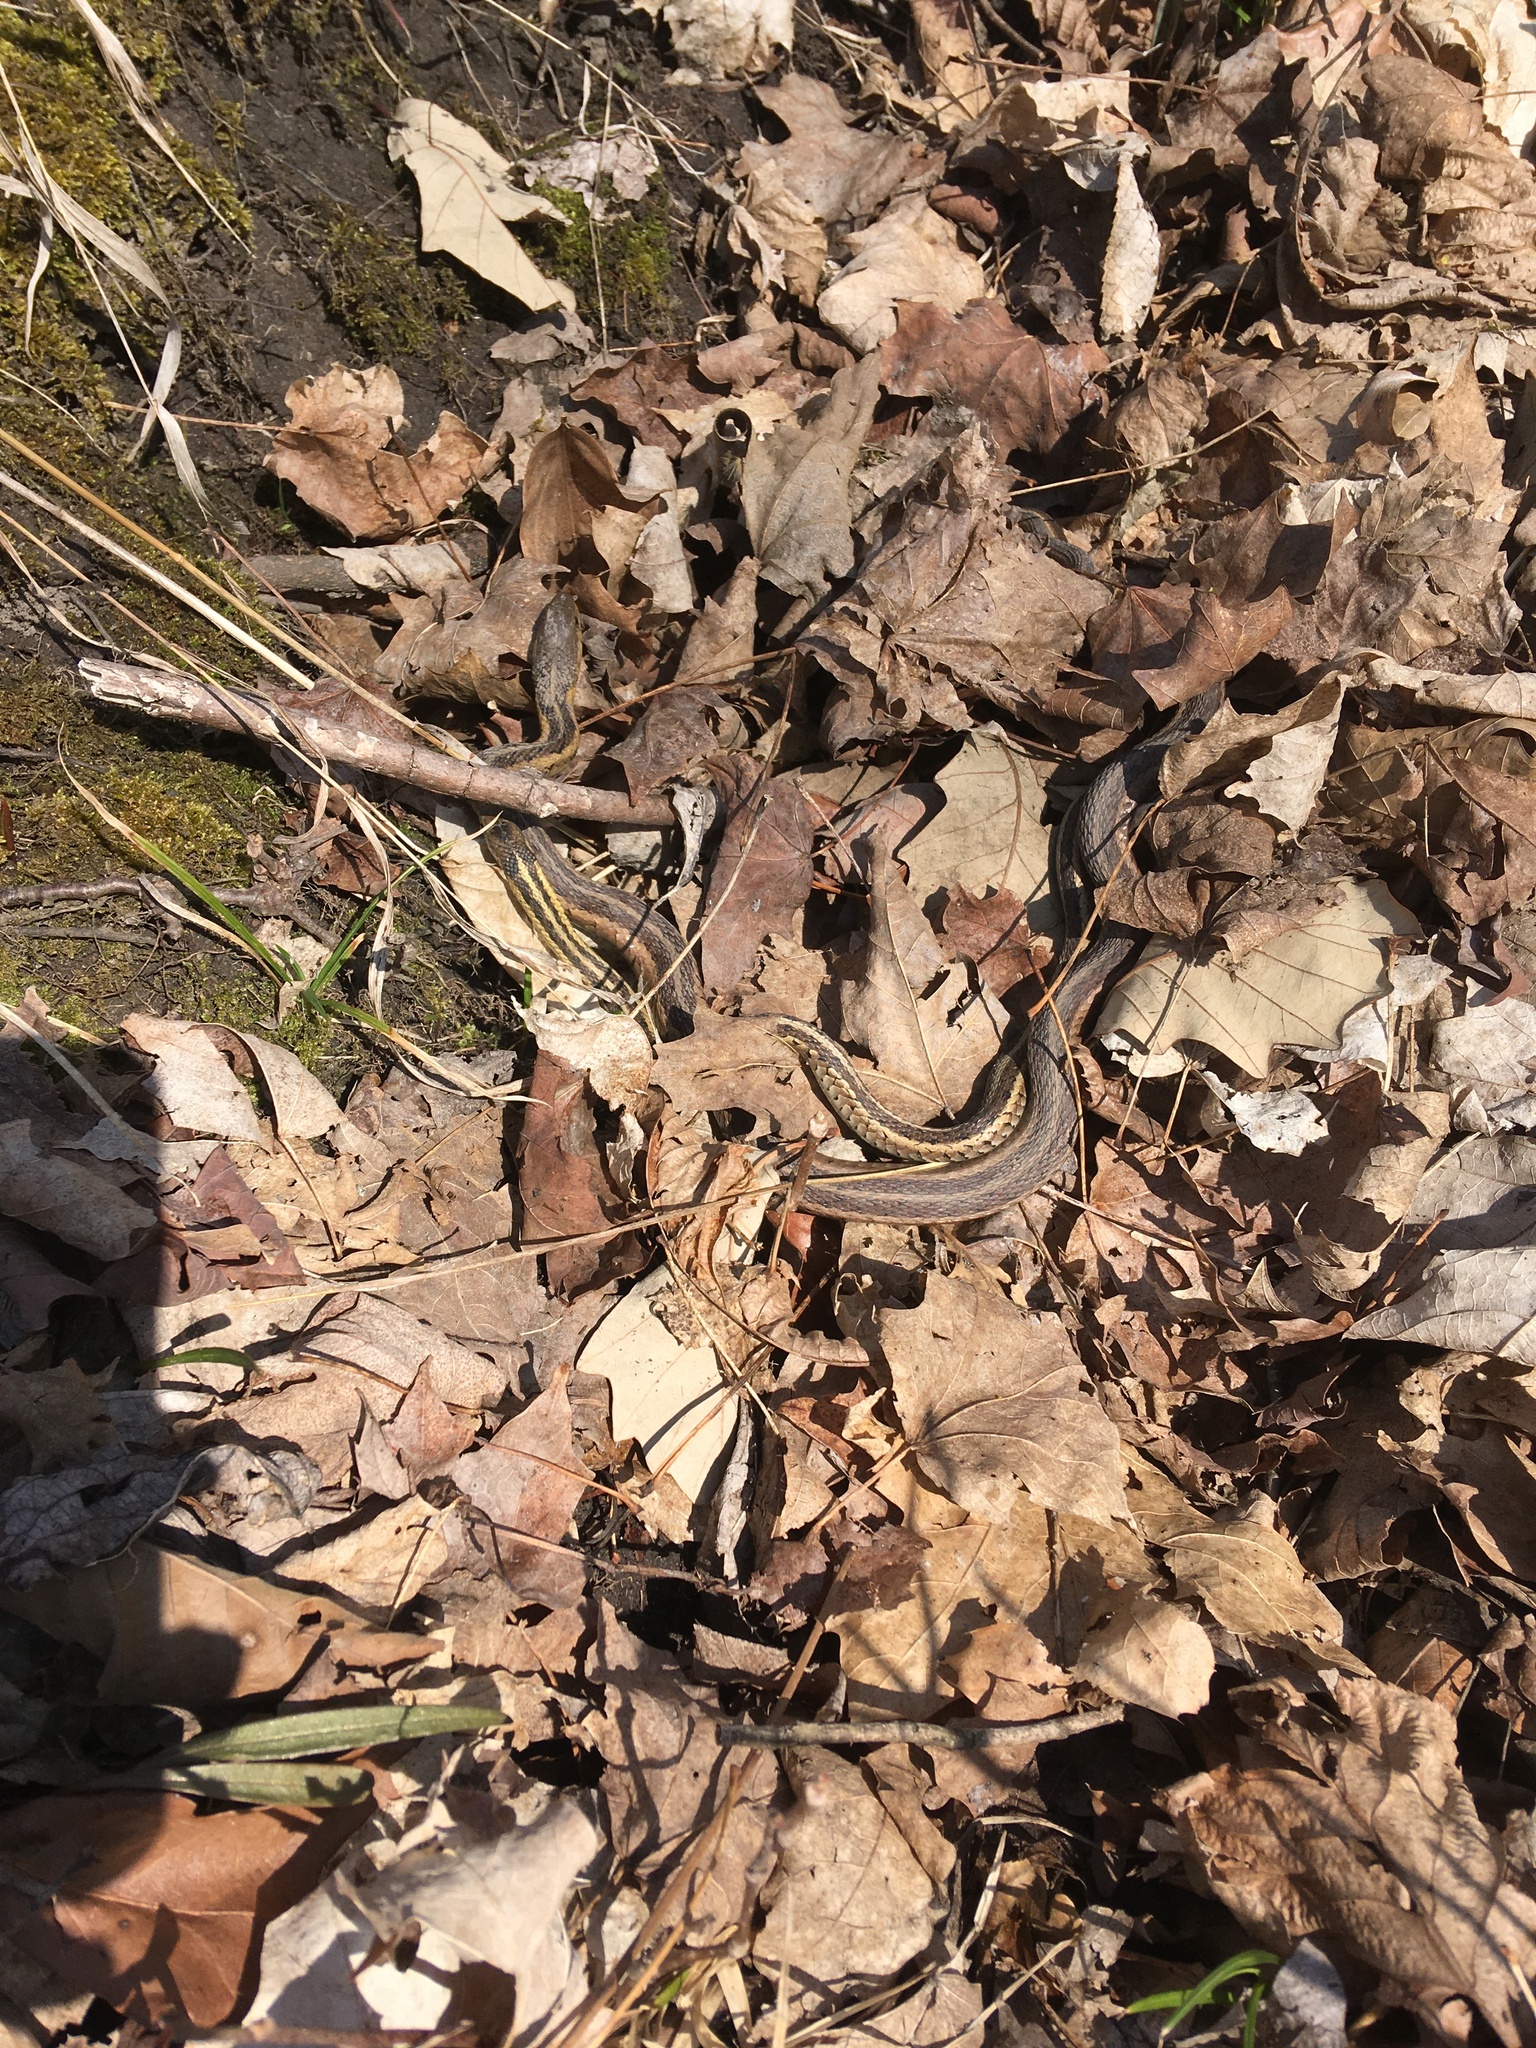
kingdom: Animalia
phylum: Chordata
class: Squamata
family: Colubridae
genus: Thamnophis
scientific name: Thamnophis sirtalis
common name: Common garter snake
